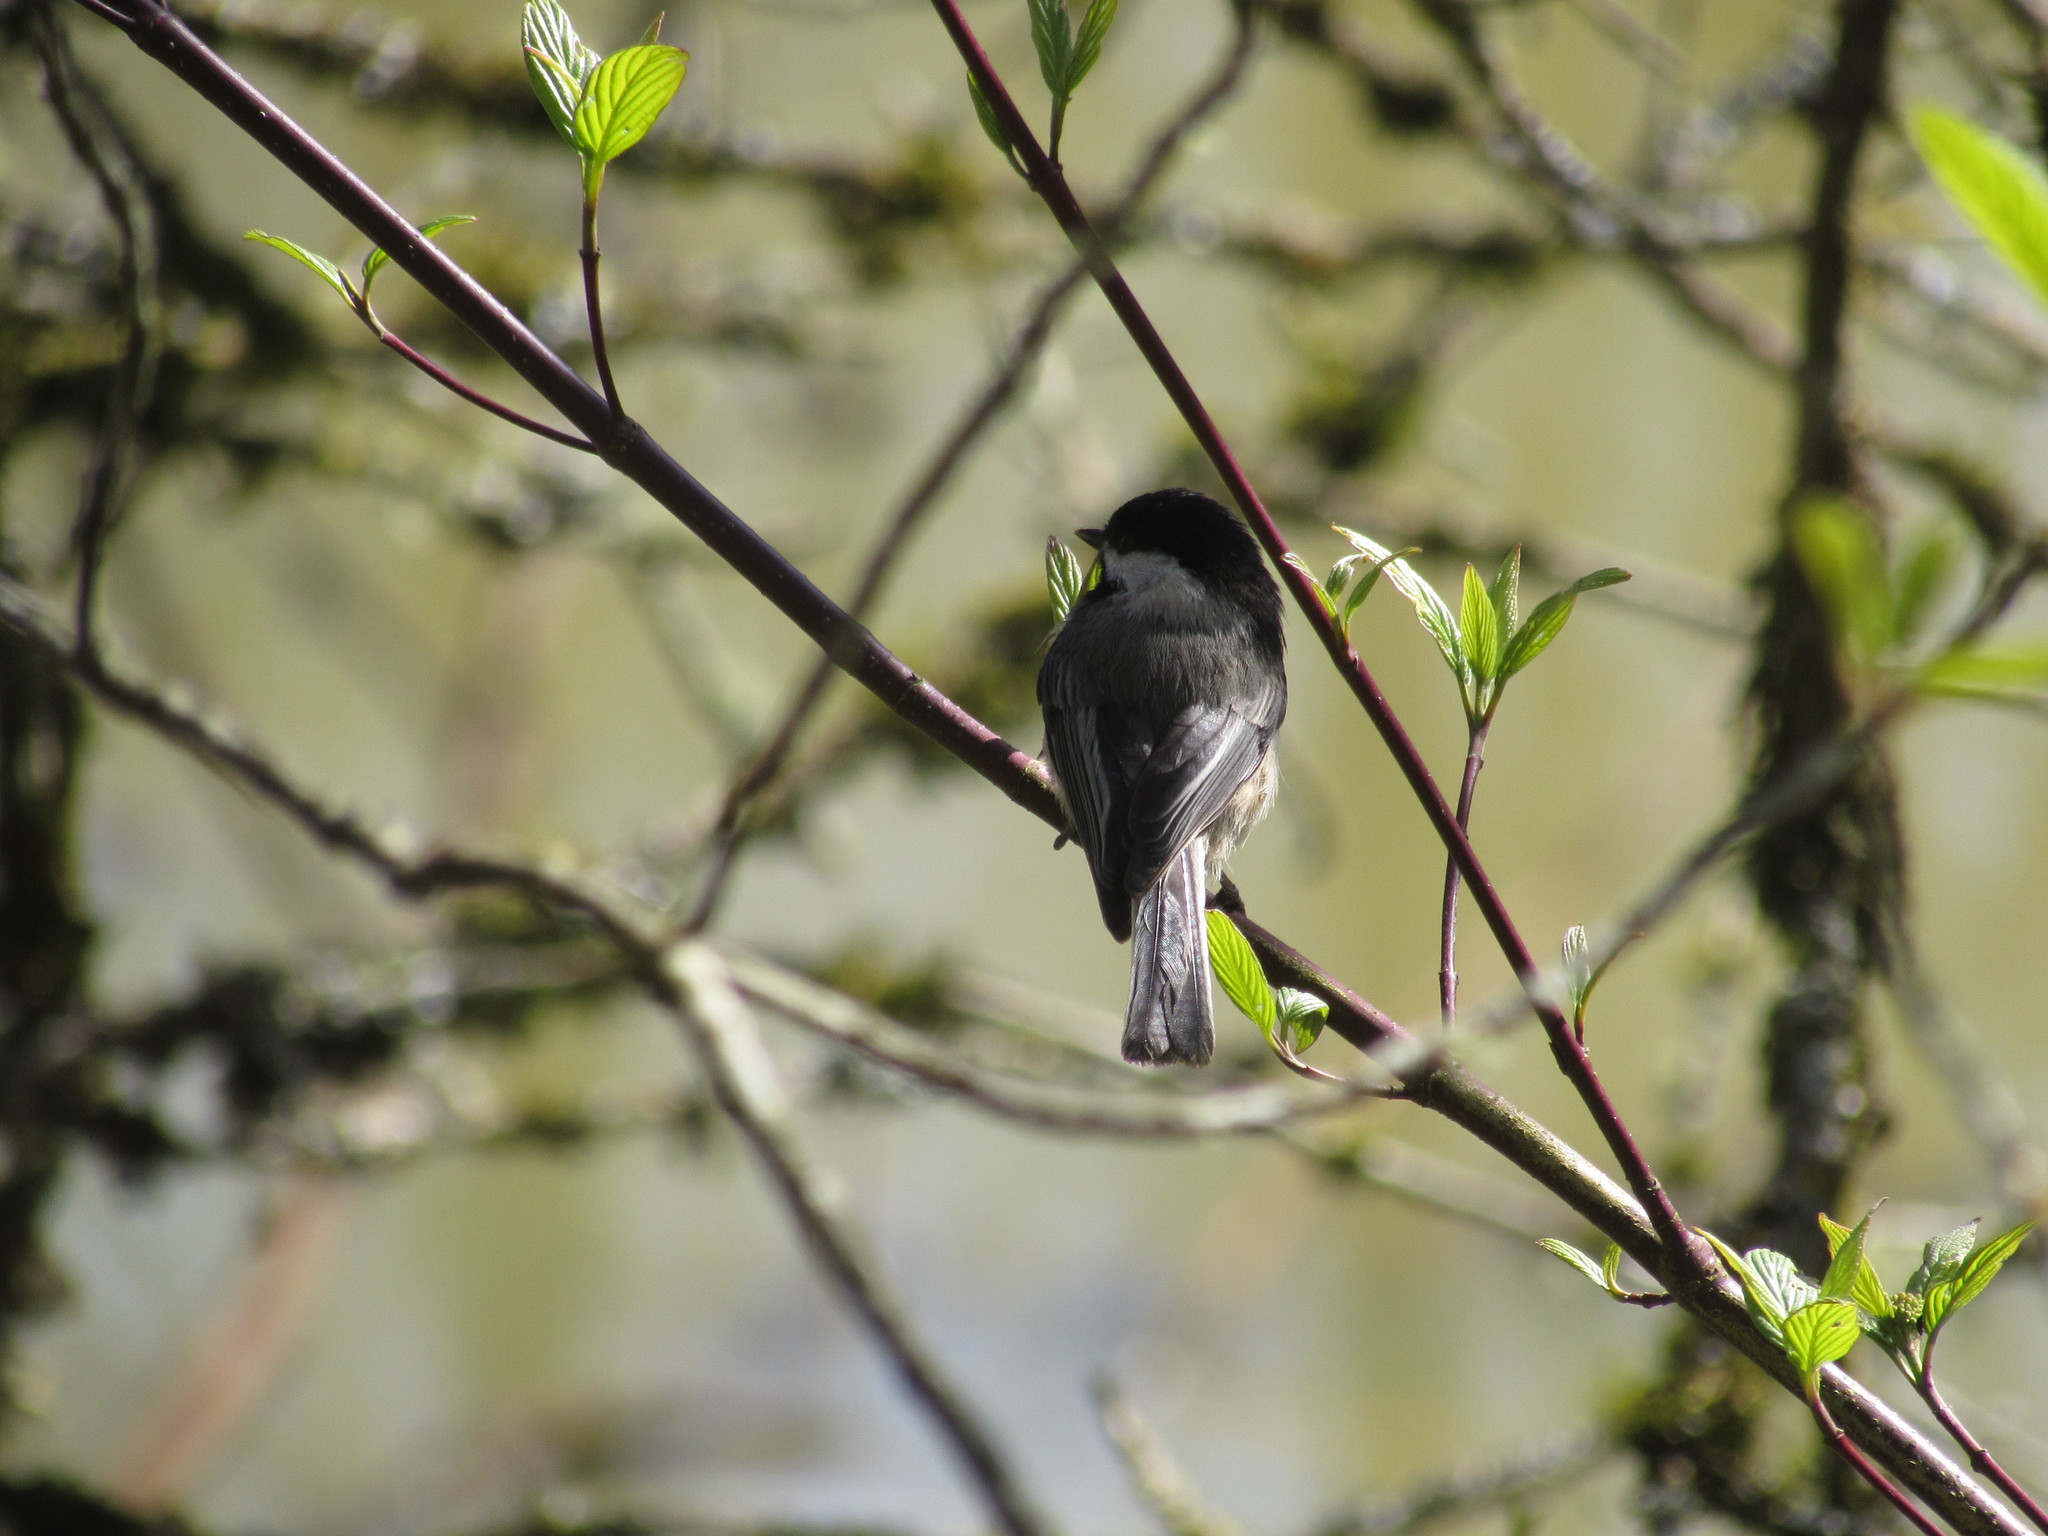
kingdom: Animalia
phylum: Chordata
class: Aves
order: Passeriformes
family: Paridae
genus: Poecile
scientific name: Poecile atricapillus
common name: Black-capped chickadee
